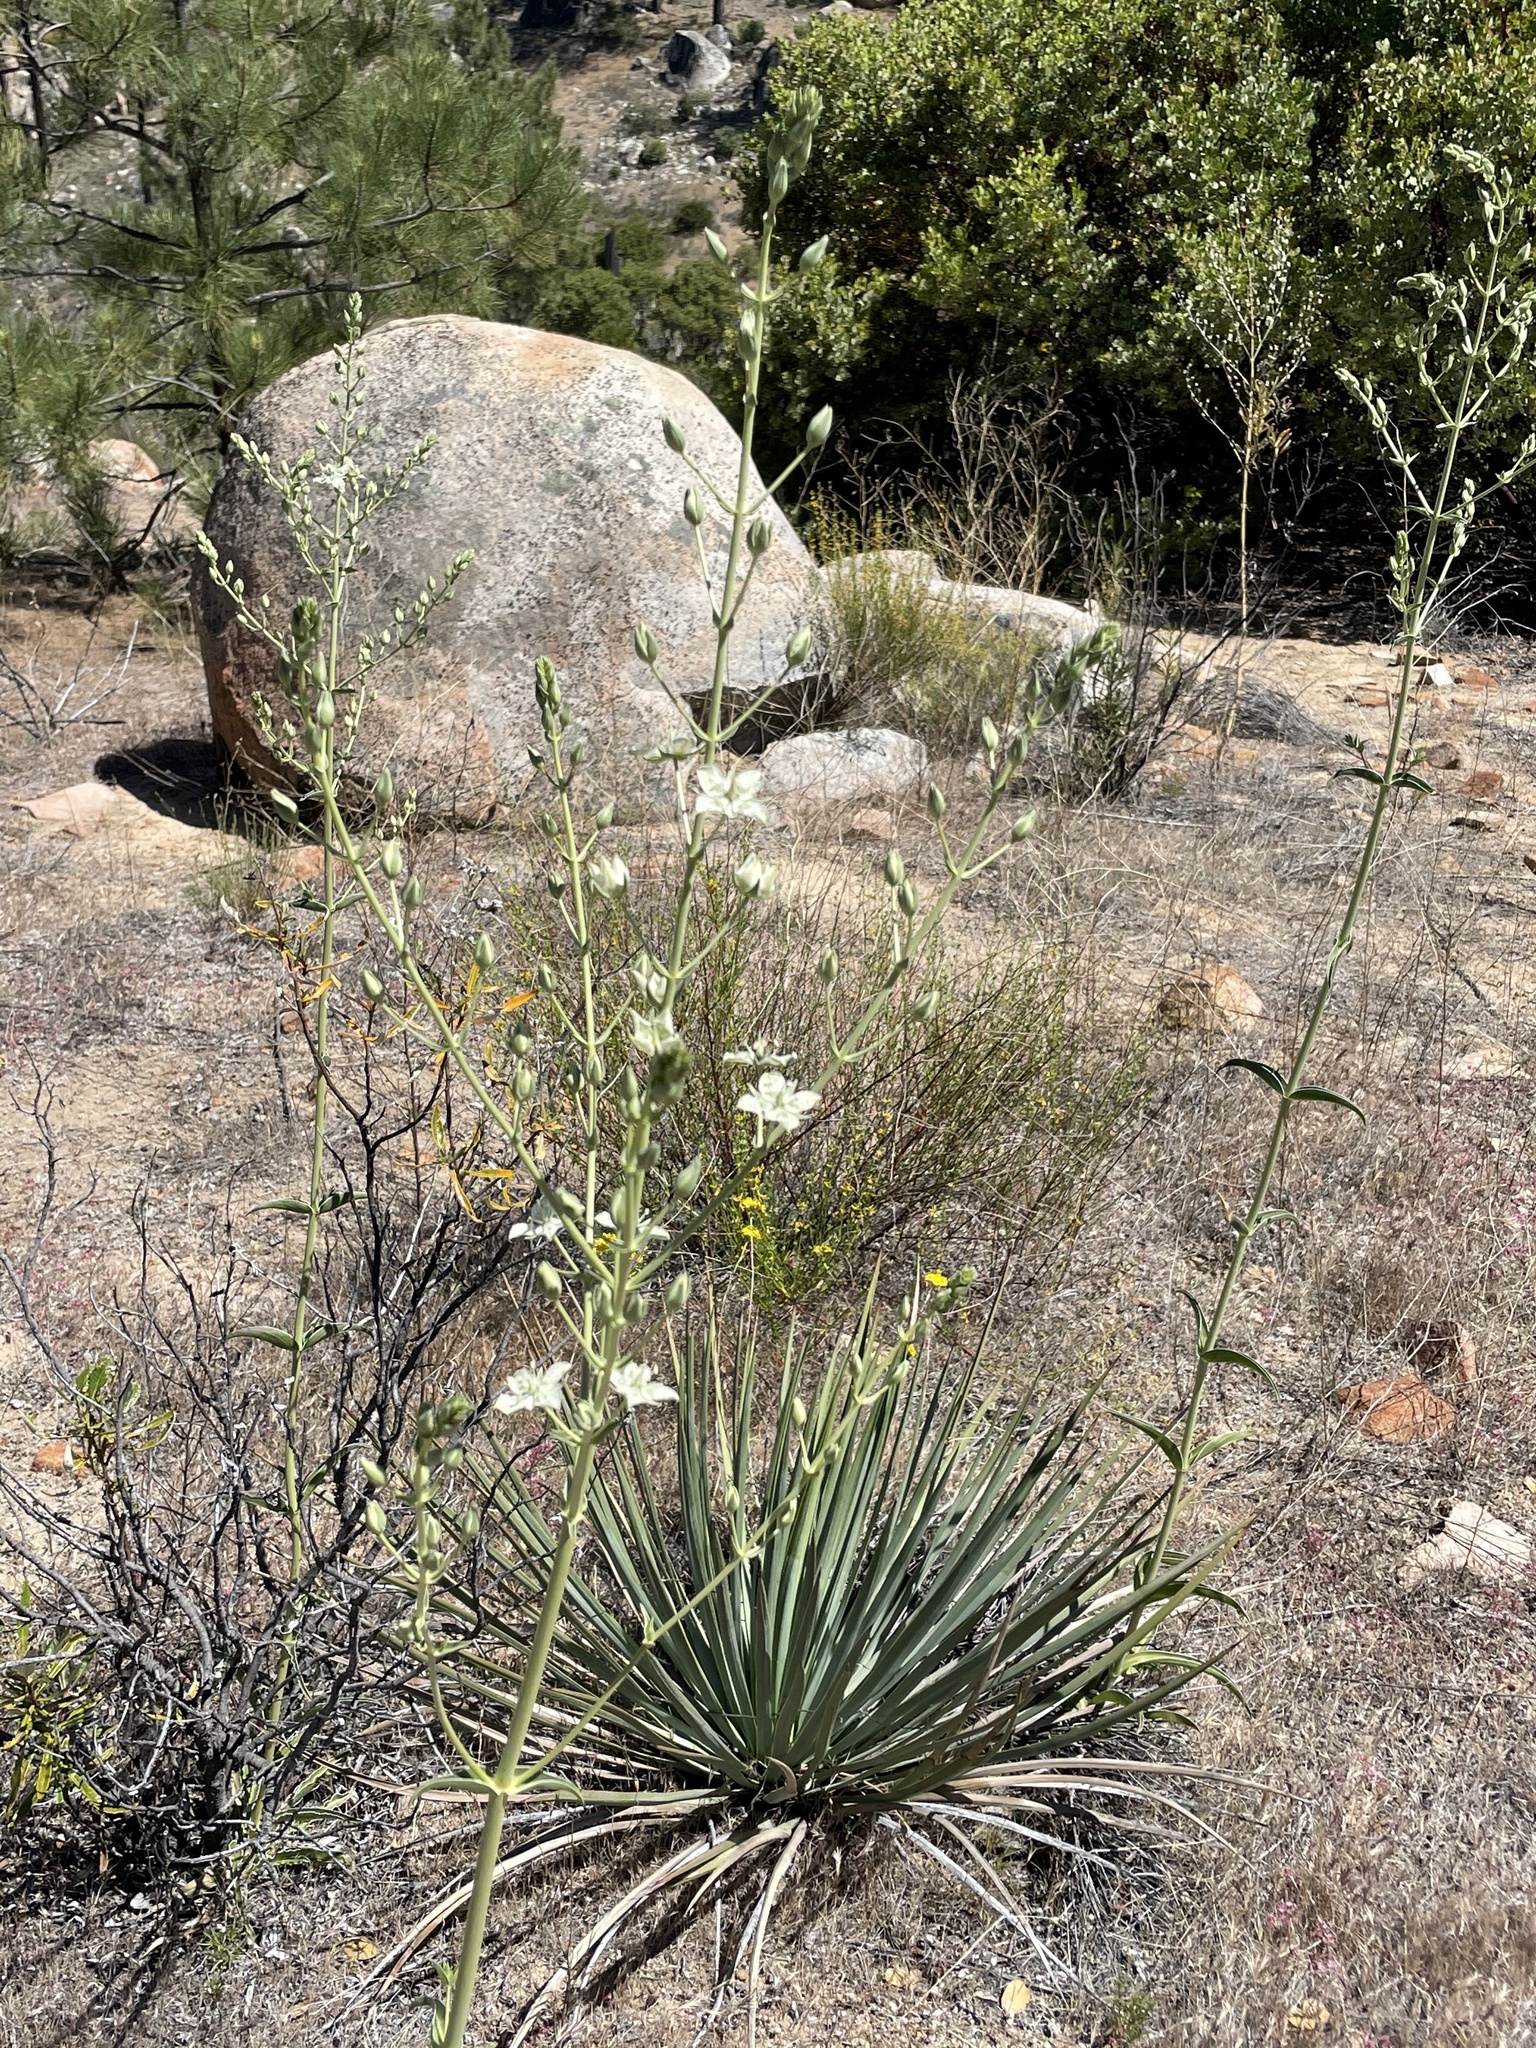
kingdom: Plantae
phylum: Tracheophyta
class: Magnoliopsida
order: Gentianales
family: Gentianaceae
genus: Frasera
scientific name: Frasera parryi
